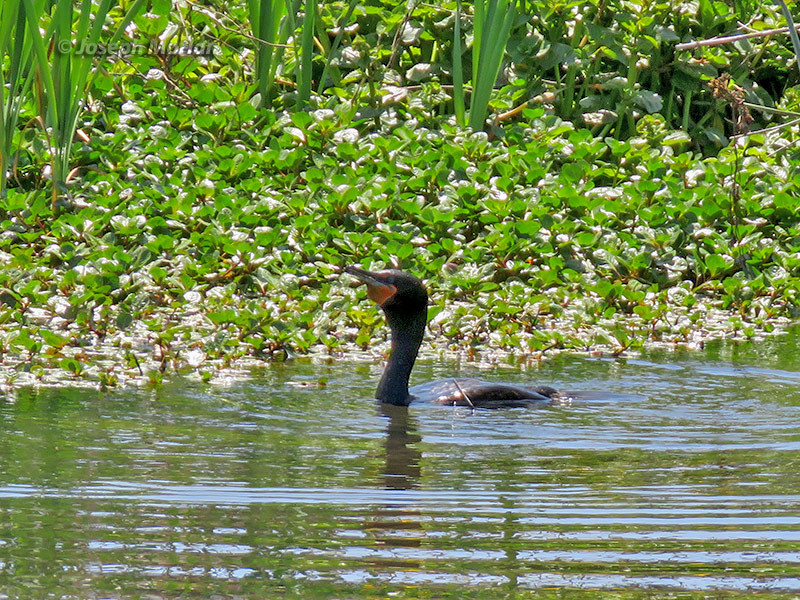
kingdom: Animalia
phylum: Chordata
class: Aves
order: Suliformes
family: Phalacrocoracidae
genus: Phalacrocorax
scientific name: Phalacrocorax auritus
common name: Double-crested cormorant
